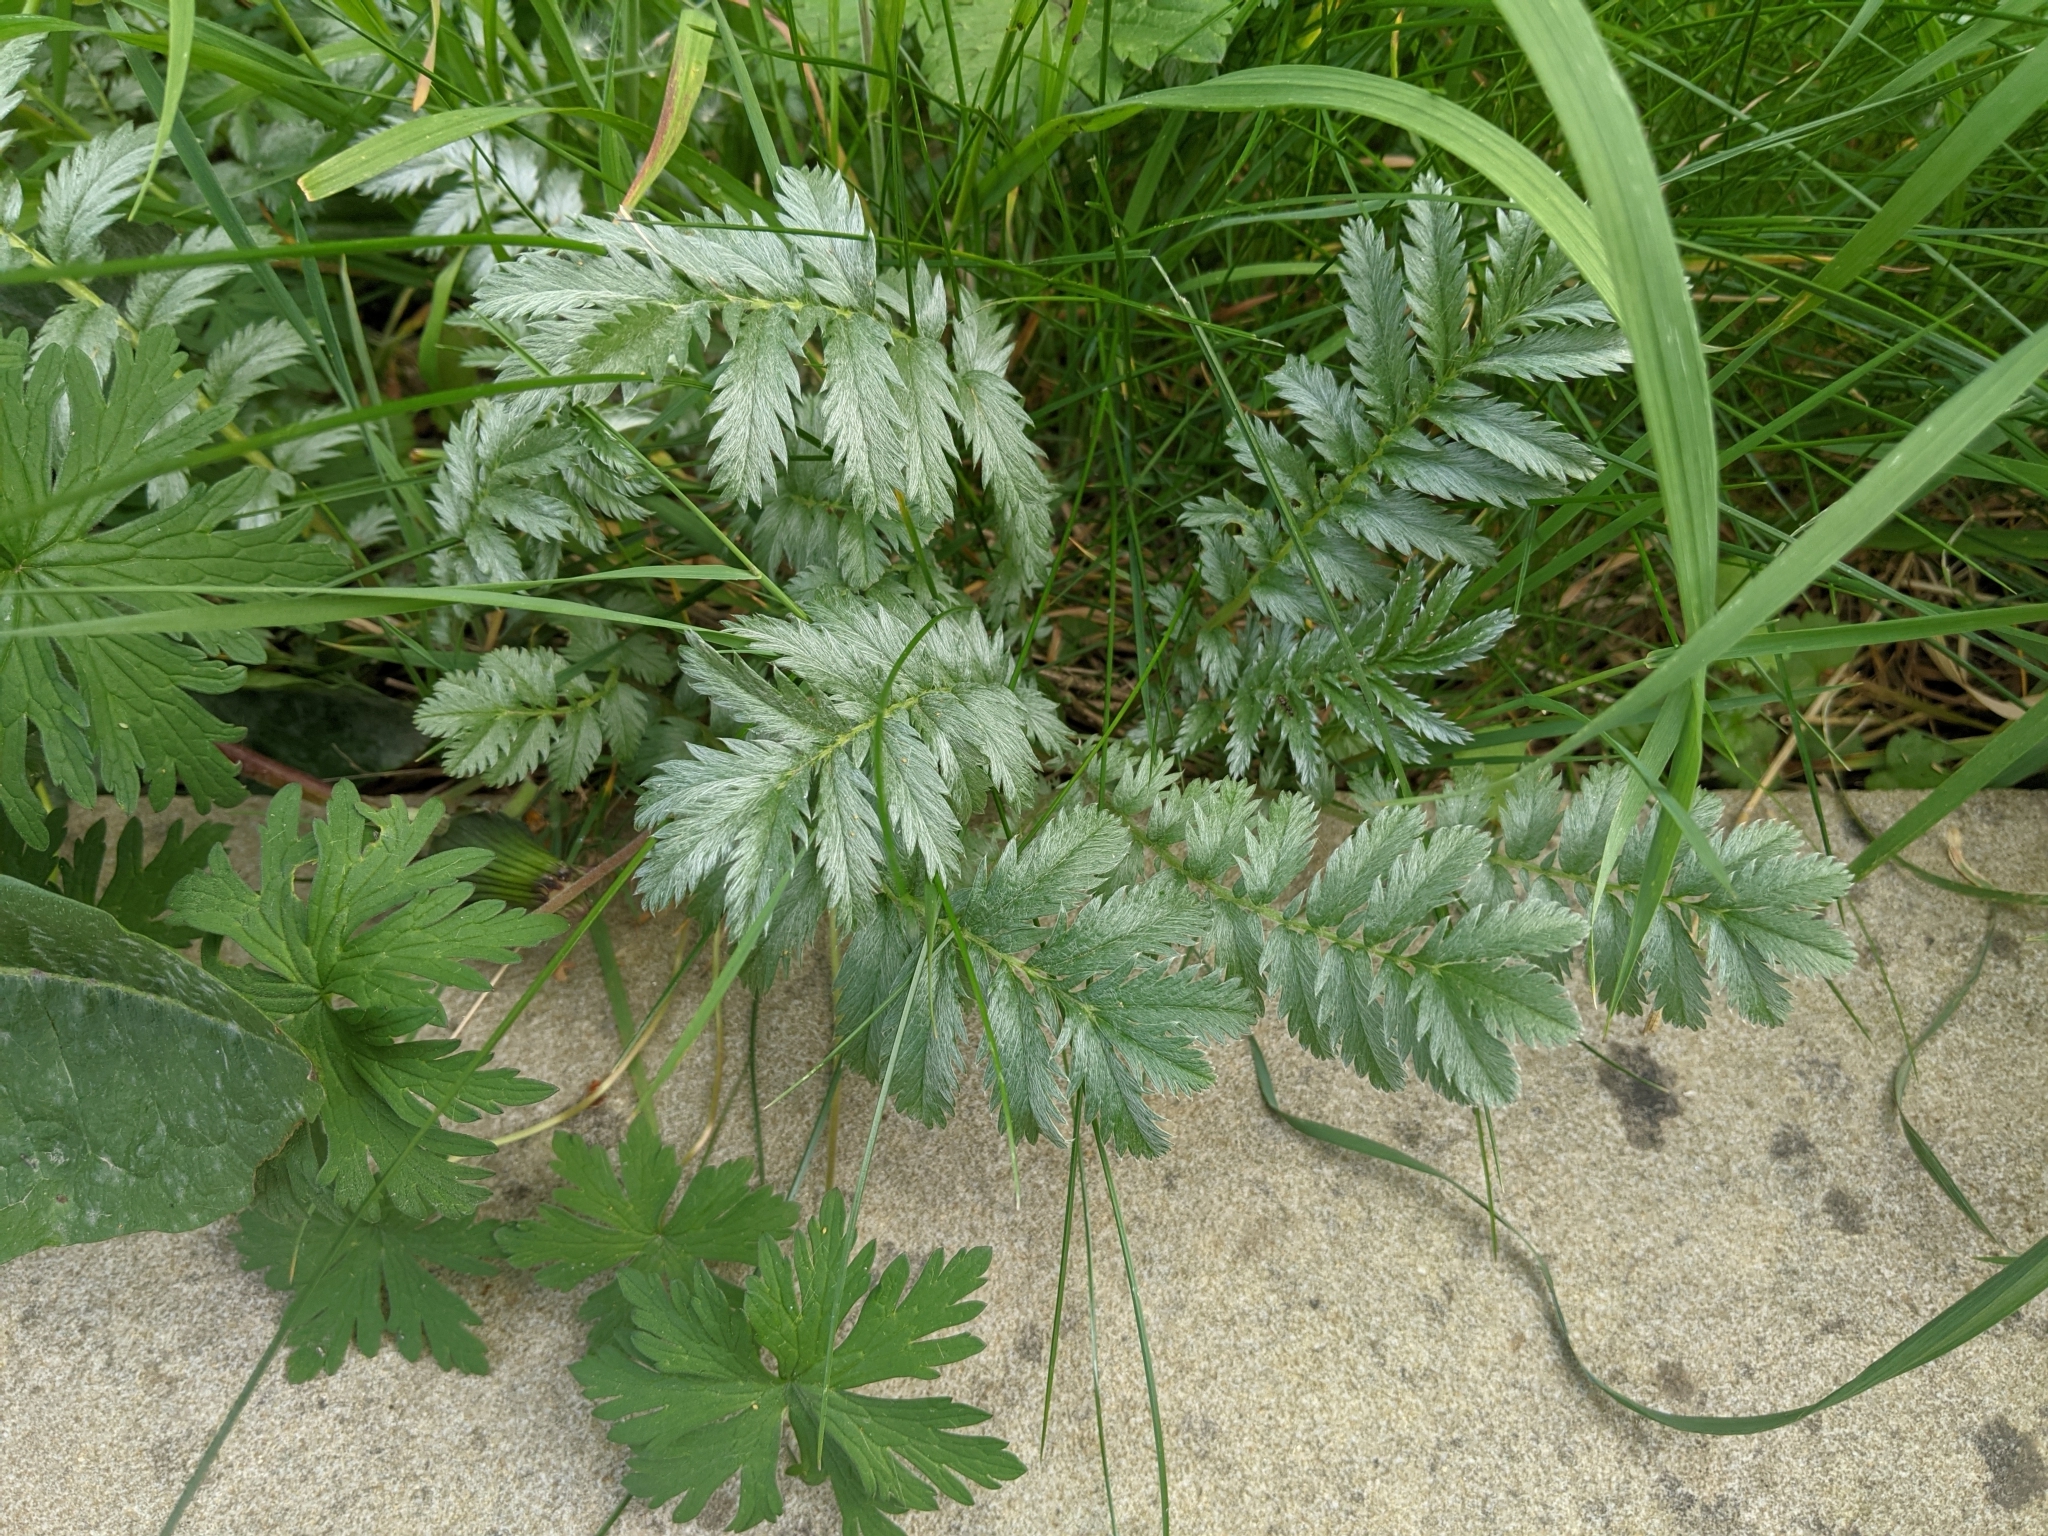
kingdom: Plantae
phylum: Tracheophyta
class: Magnoliopsida
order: Rosales
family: Rosaceae
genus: Argentina
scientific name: Argentina anserina
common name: Common silverweed
